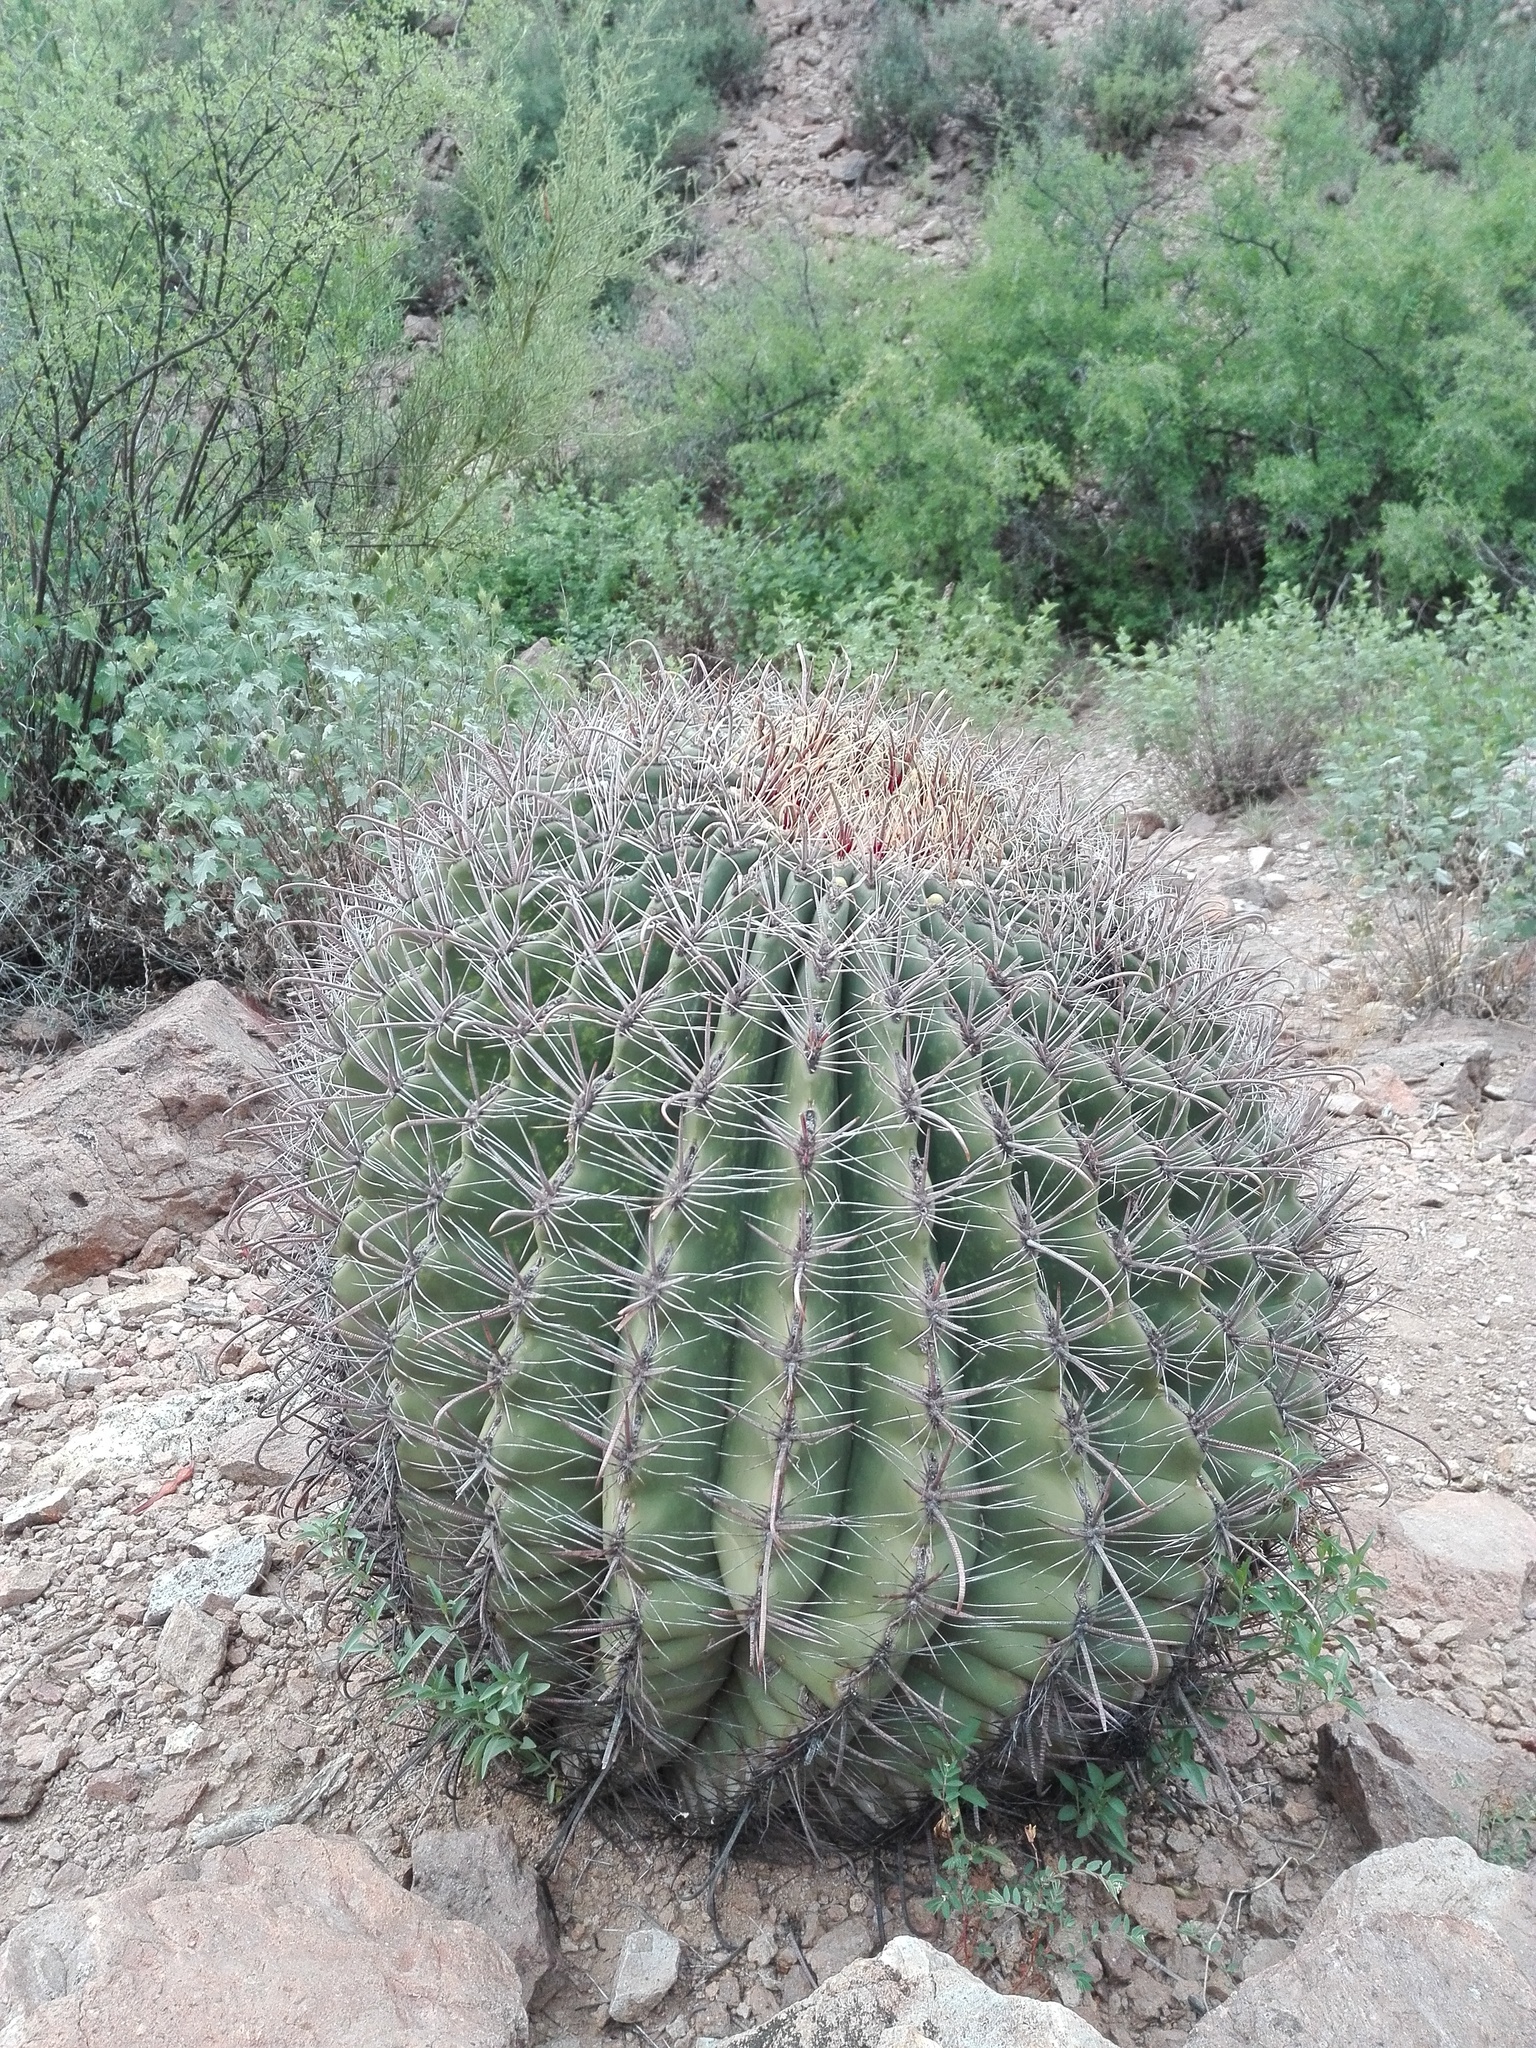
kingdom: Plantae
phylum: Tracheophyta
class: Magnoliopsida
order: Caryophyllales
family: Cactaceae
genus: Ferocactus
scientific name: Ferocactus wislizeni
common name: Candy barrel cactus
